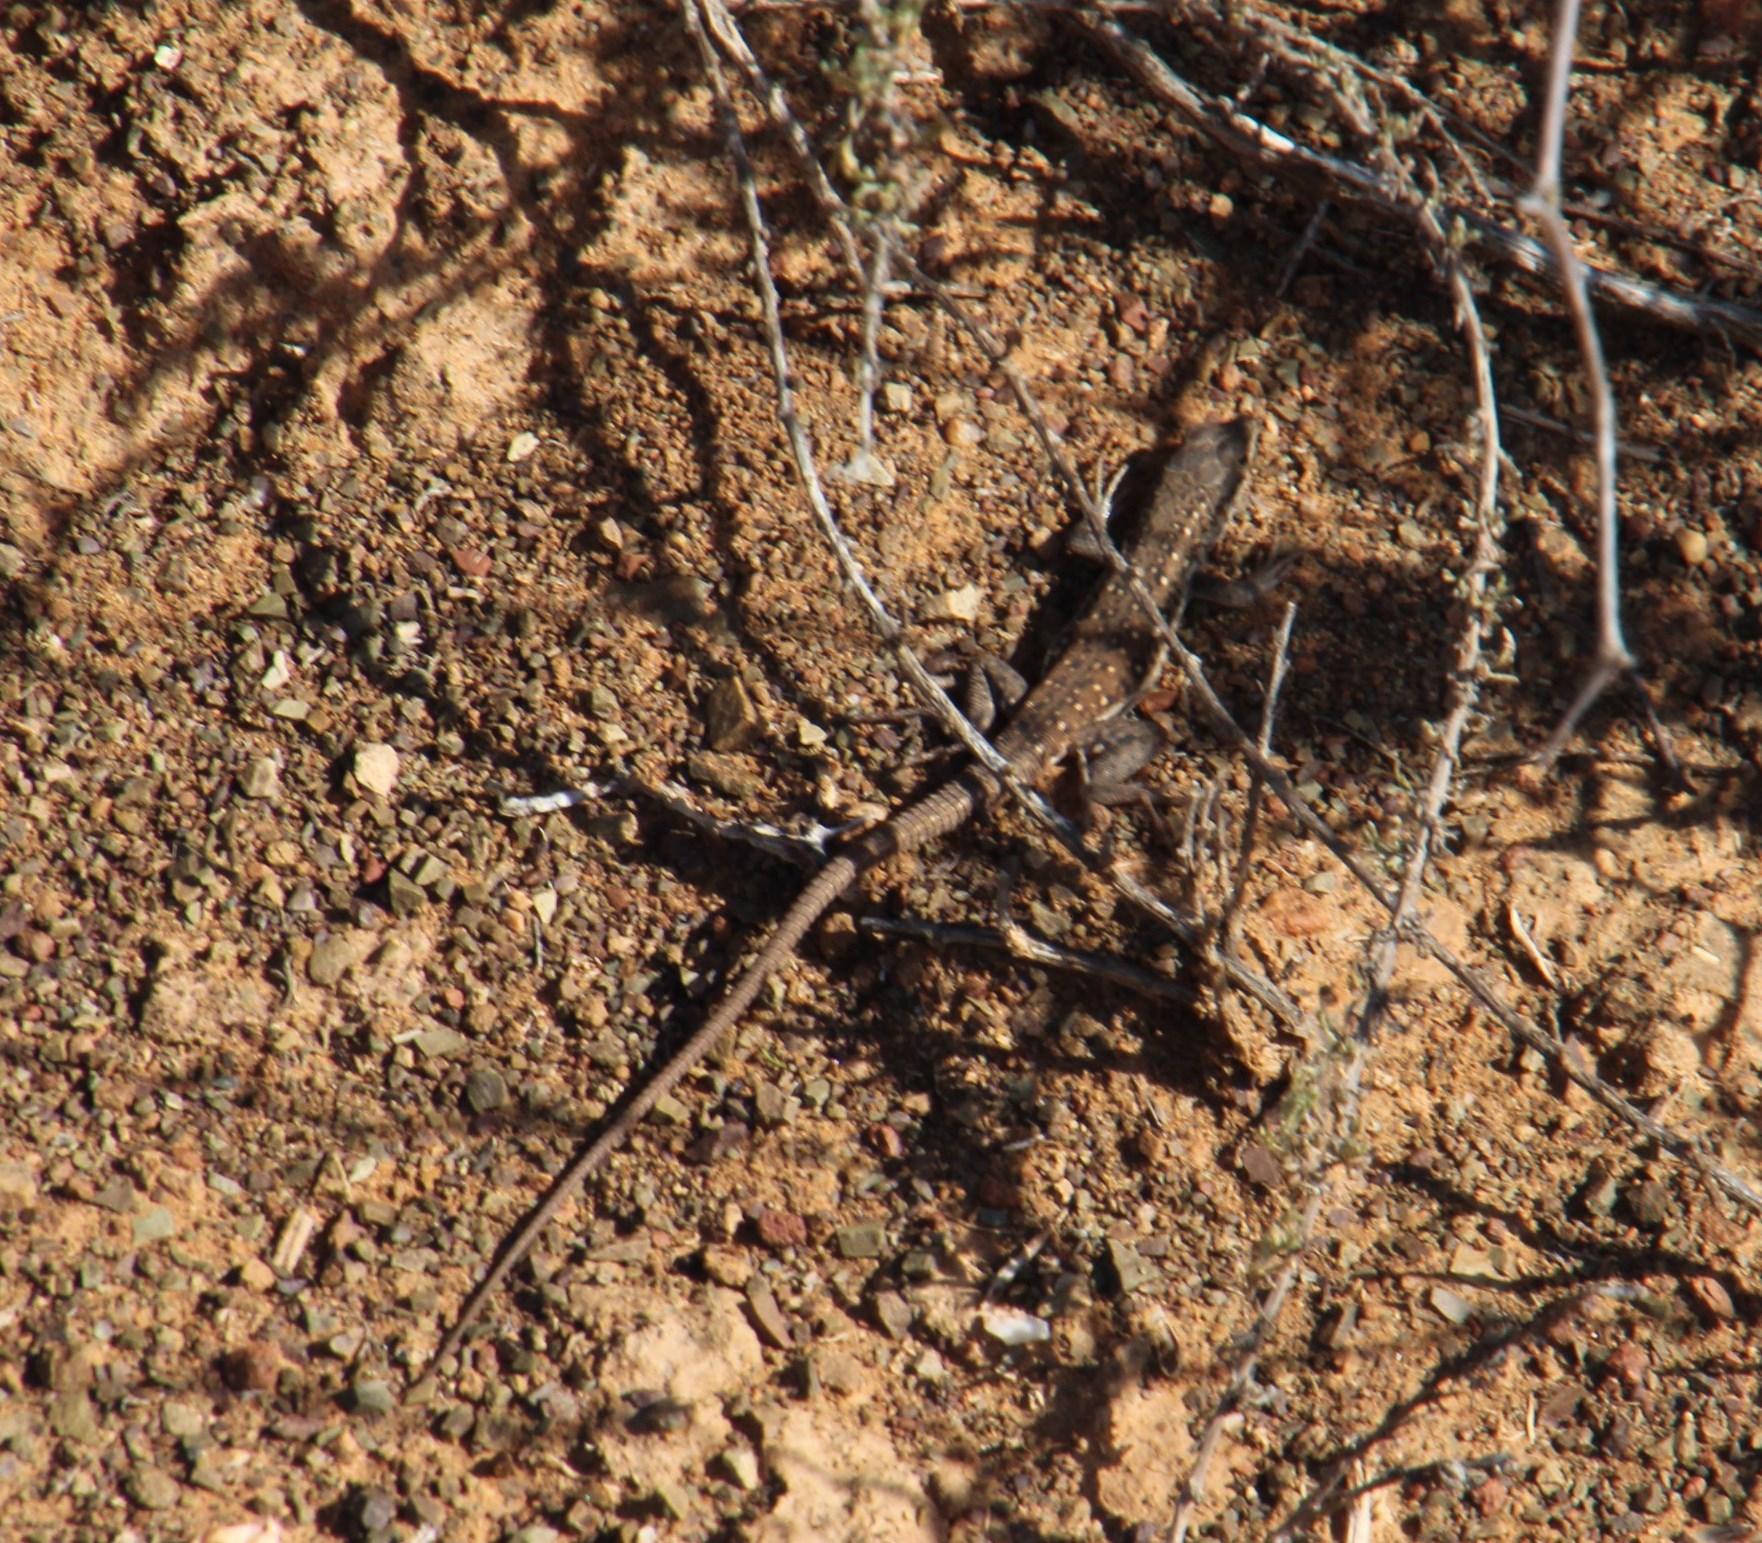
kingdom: Animalia
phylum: Chordata
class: Squamata
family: Lacertidae
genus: Pedioplanis
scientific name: Pedioplanis lineoocellata
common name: Spotted sand lizard
